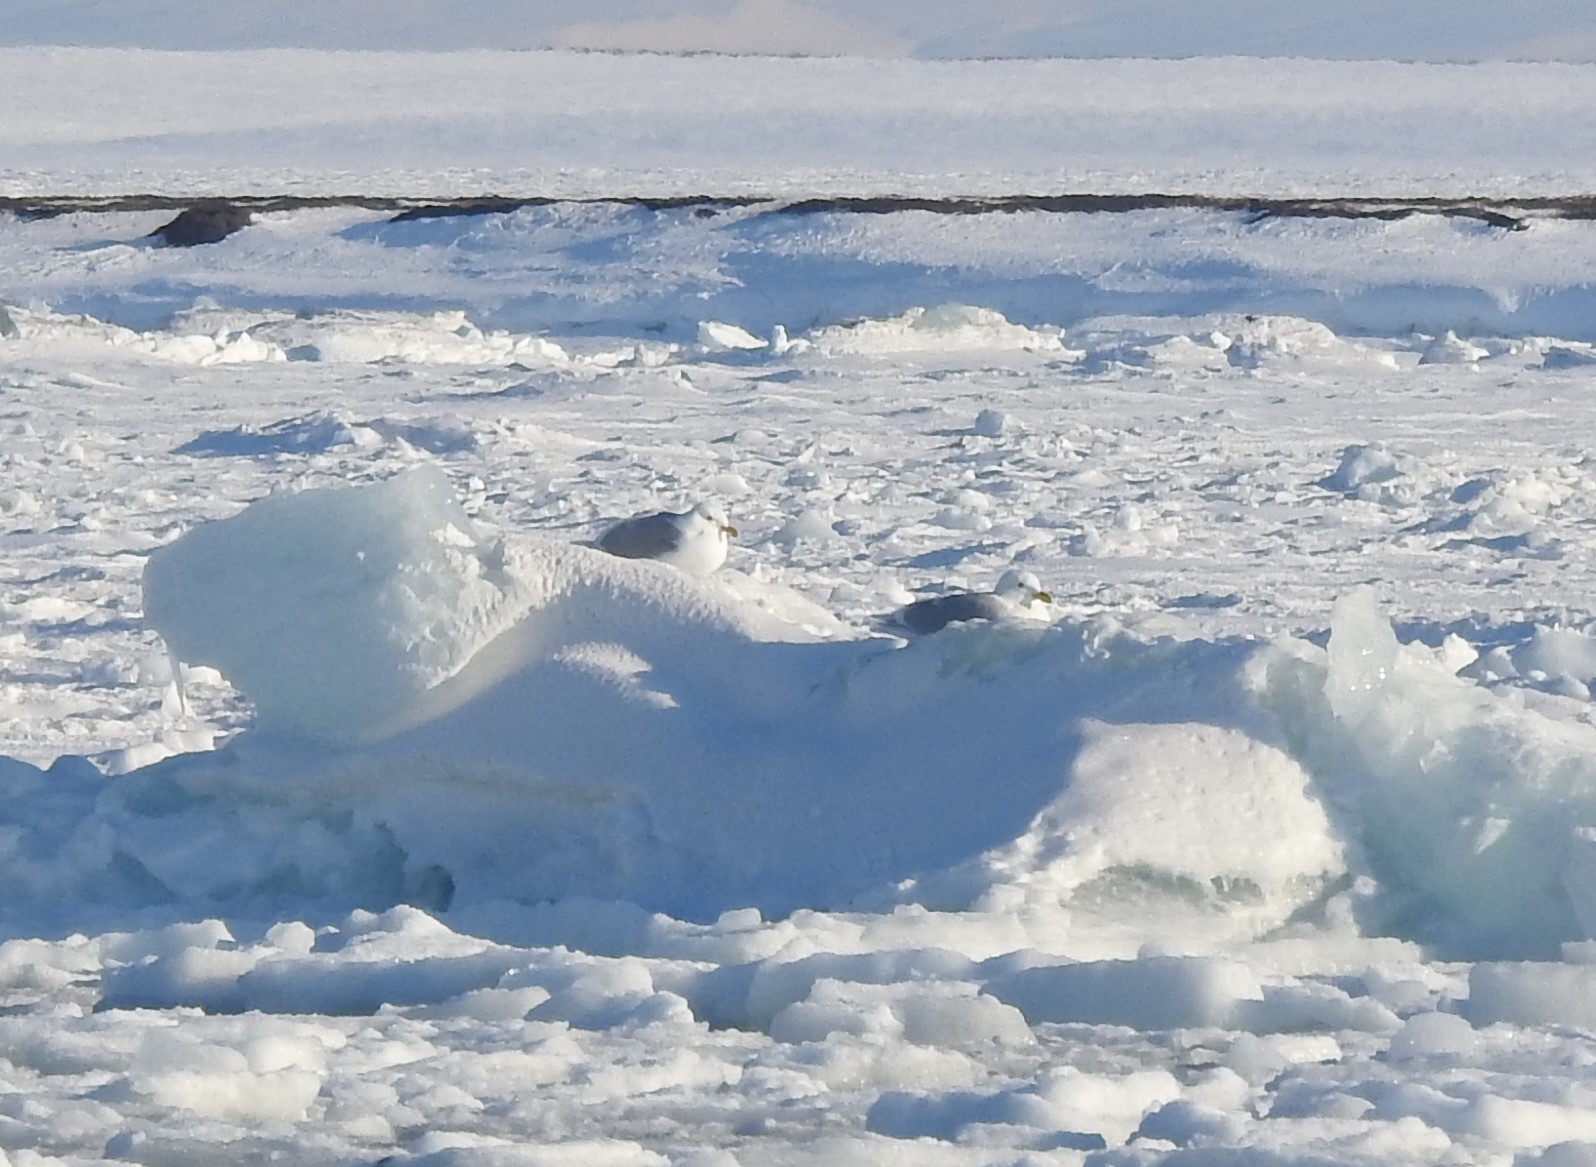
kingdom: Animalia
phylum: Chordata
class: Aves
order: Charadriiformes
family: Laridae
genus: Larus
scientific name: Larus hyperboreus
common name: Glaucous gull
